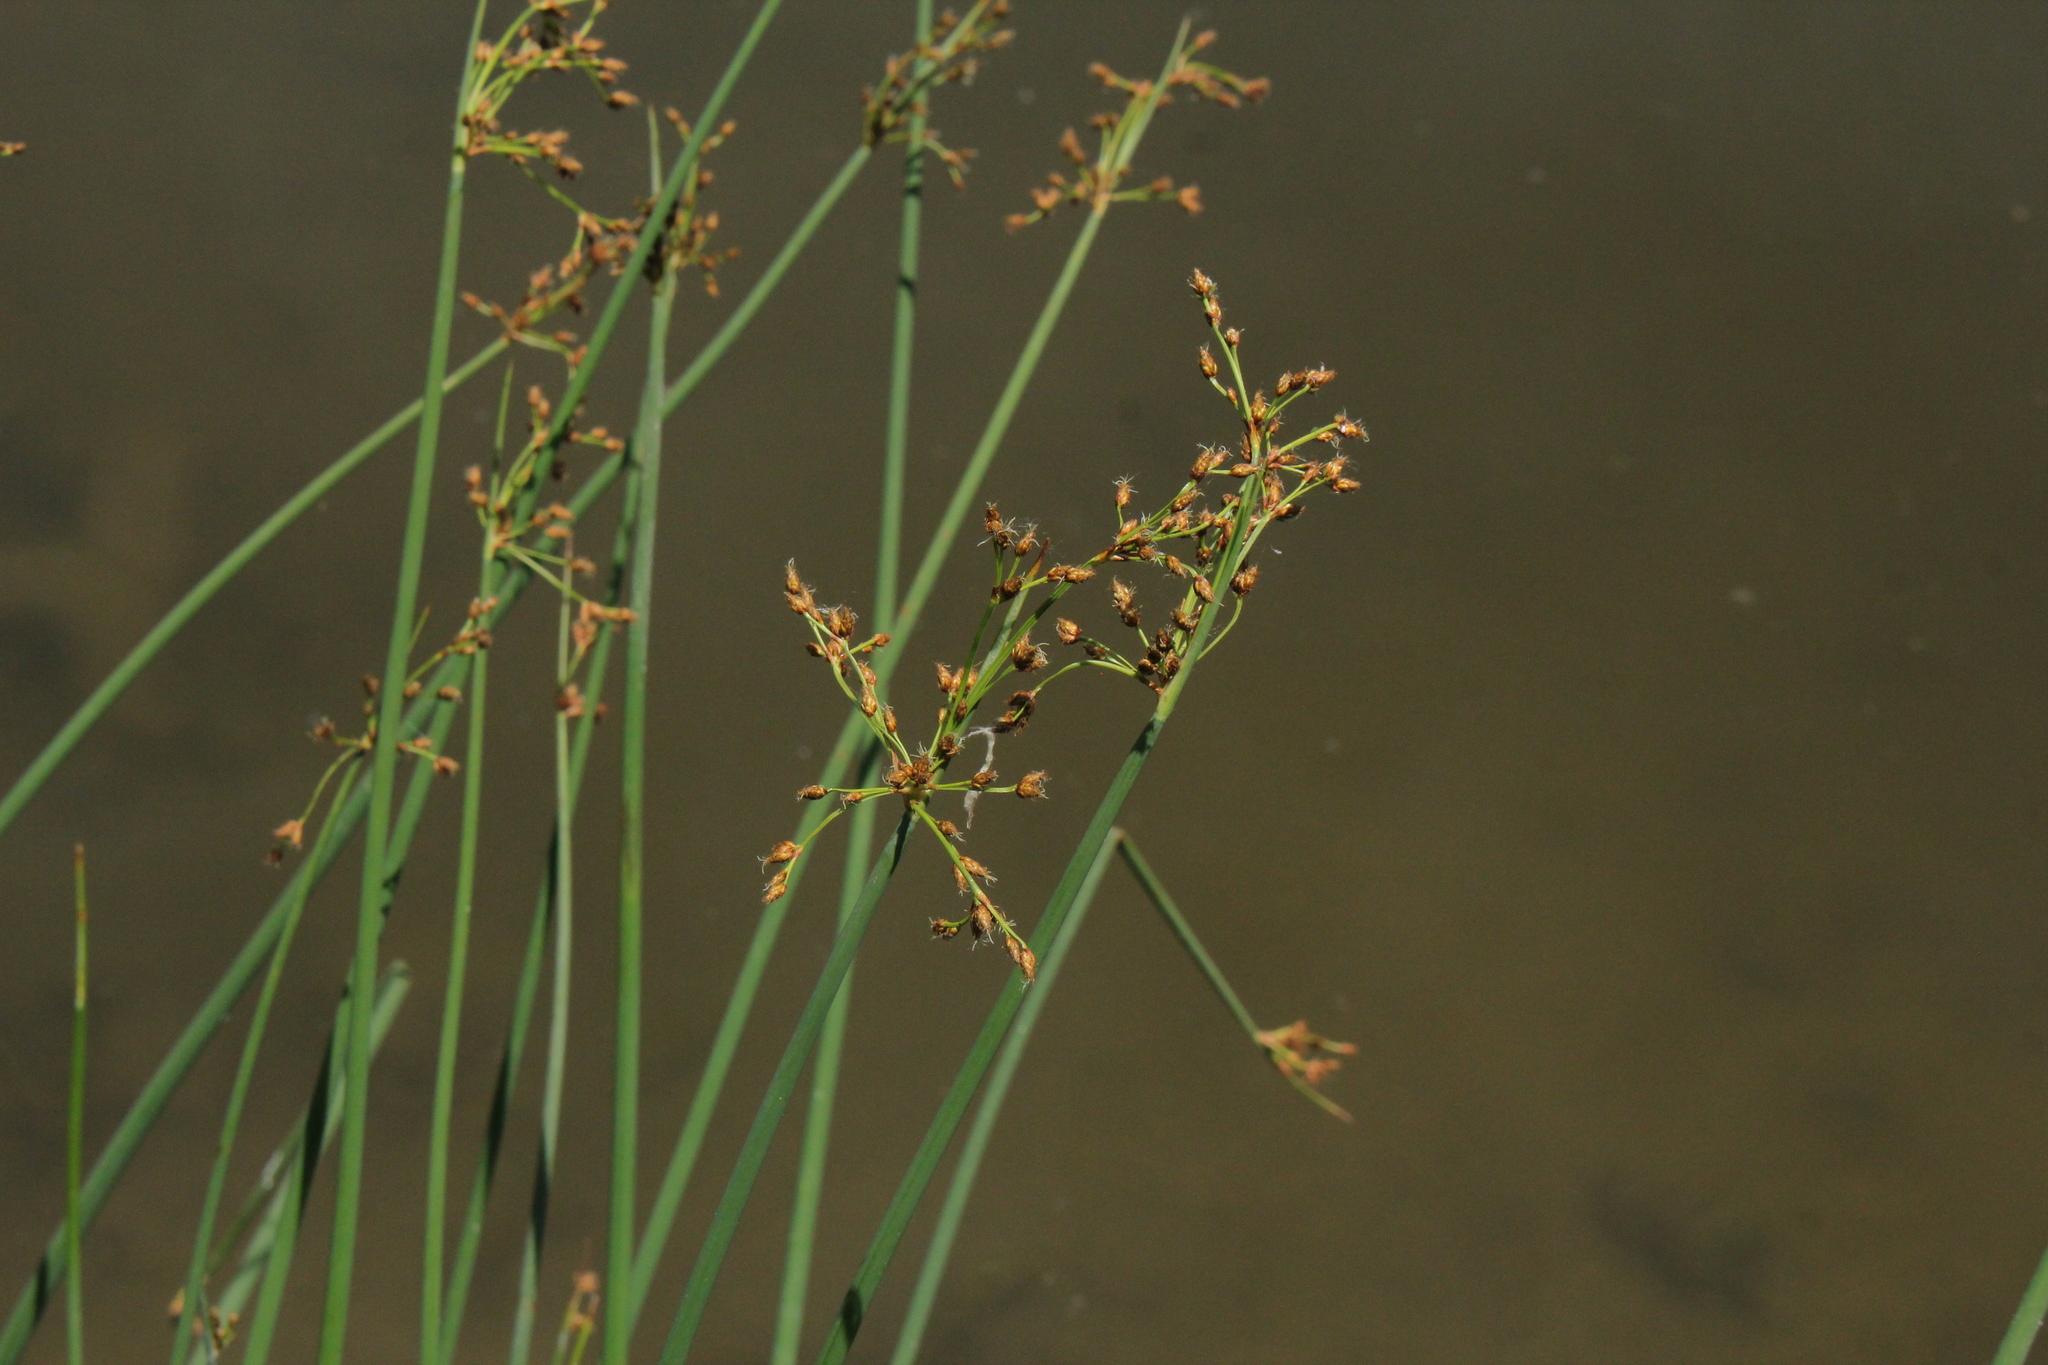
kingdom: Plantae
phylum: Tracheophyta
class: Liliopsida
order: Poales
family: Cyperaceae
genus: Schoenoplectus
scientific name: Schoenoplectus tabernaemontani
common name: Grey club-rush
